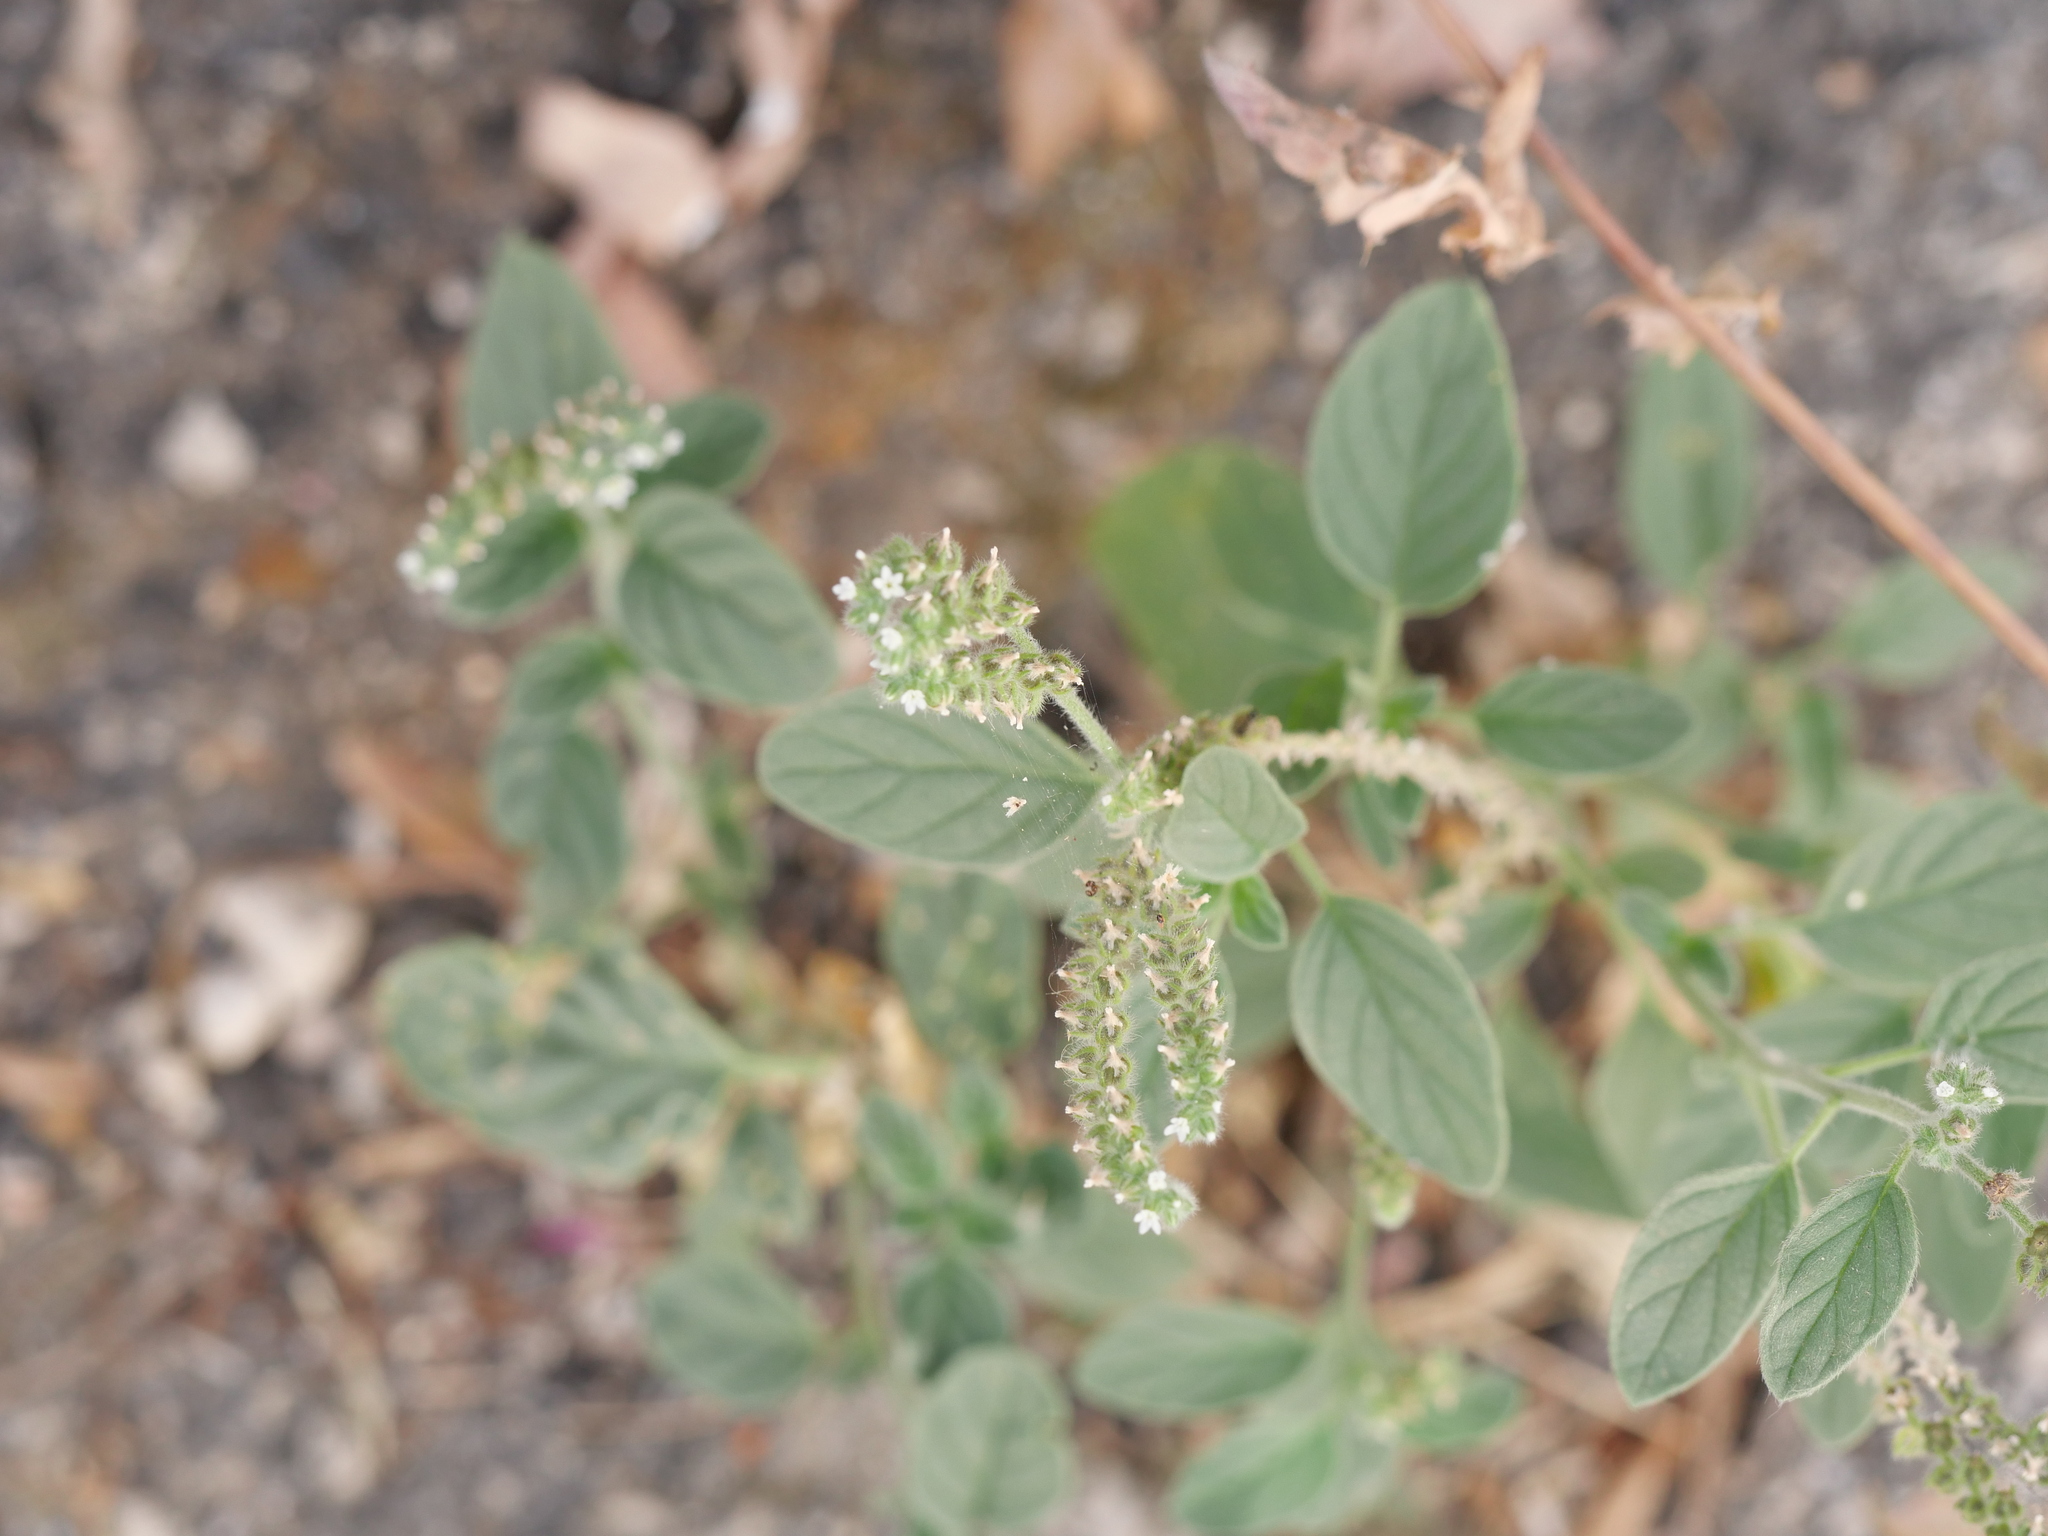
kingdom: Plantae
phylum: Tracheophyta
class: Magnoliopsida
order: Boraginales
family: Heliotropiaceae
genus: Heliotropium
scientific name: Heliotropium europaeum
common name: European heliotrope
